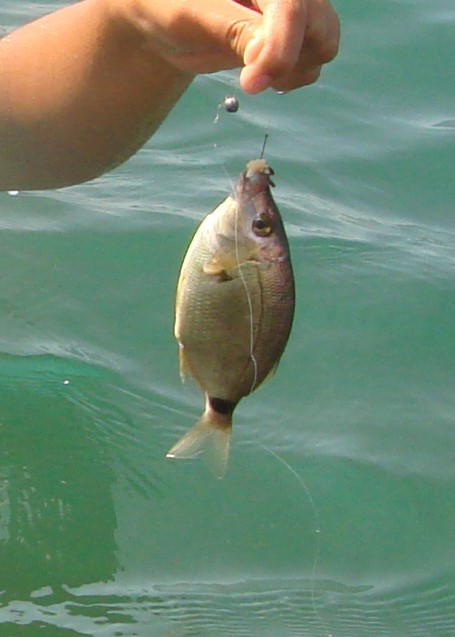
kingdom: Animalia
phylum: Chordata
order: Perciformes
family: Sparidae
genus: Diplodus
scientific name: Diplodus annularis
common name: Annular seabream
